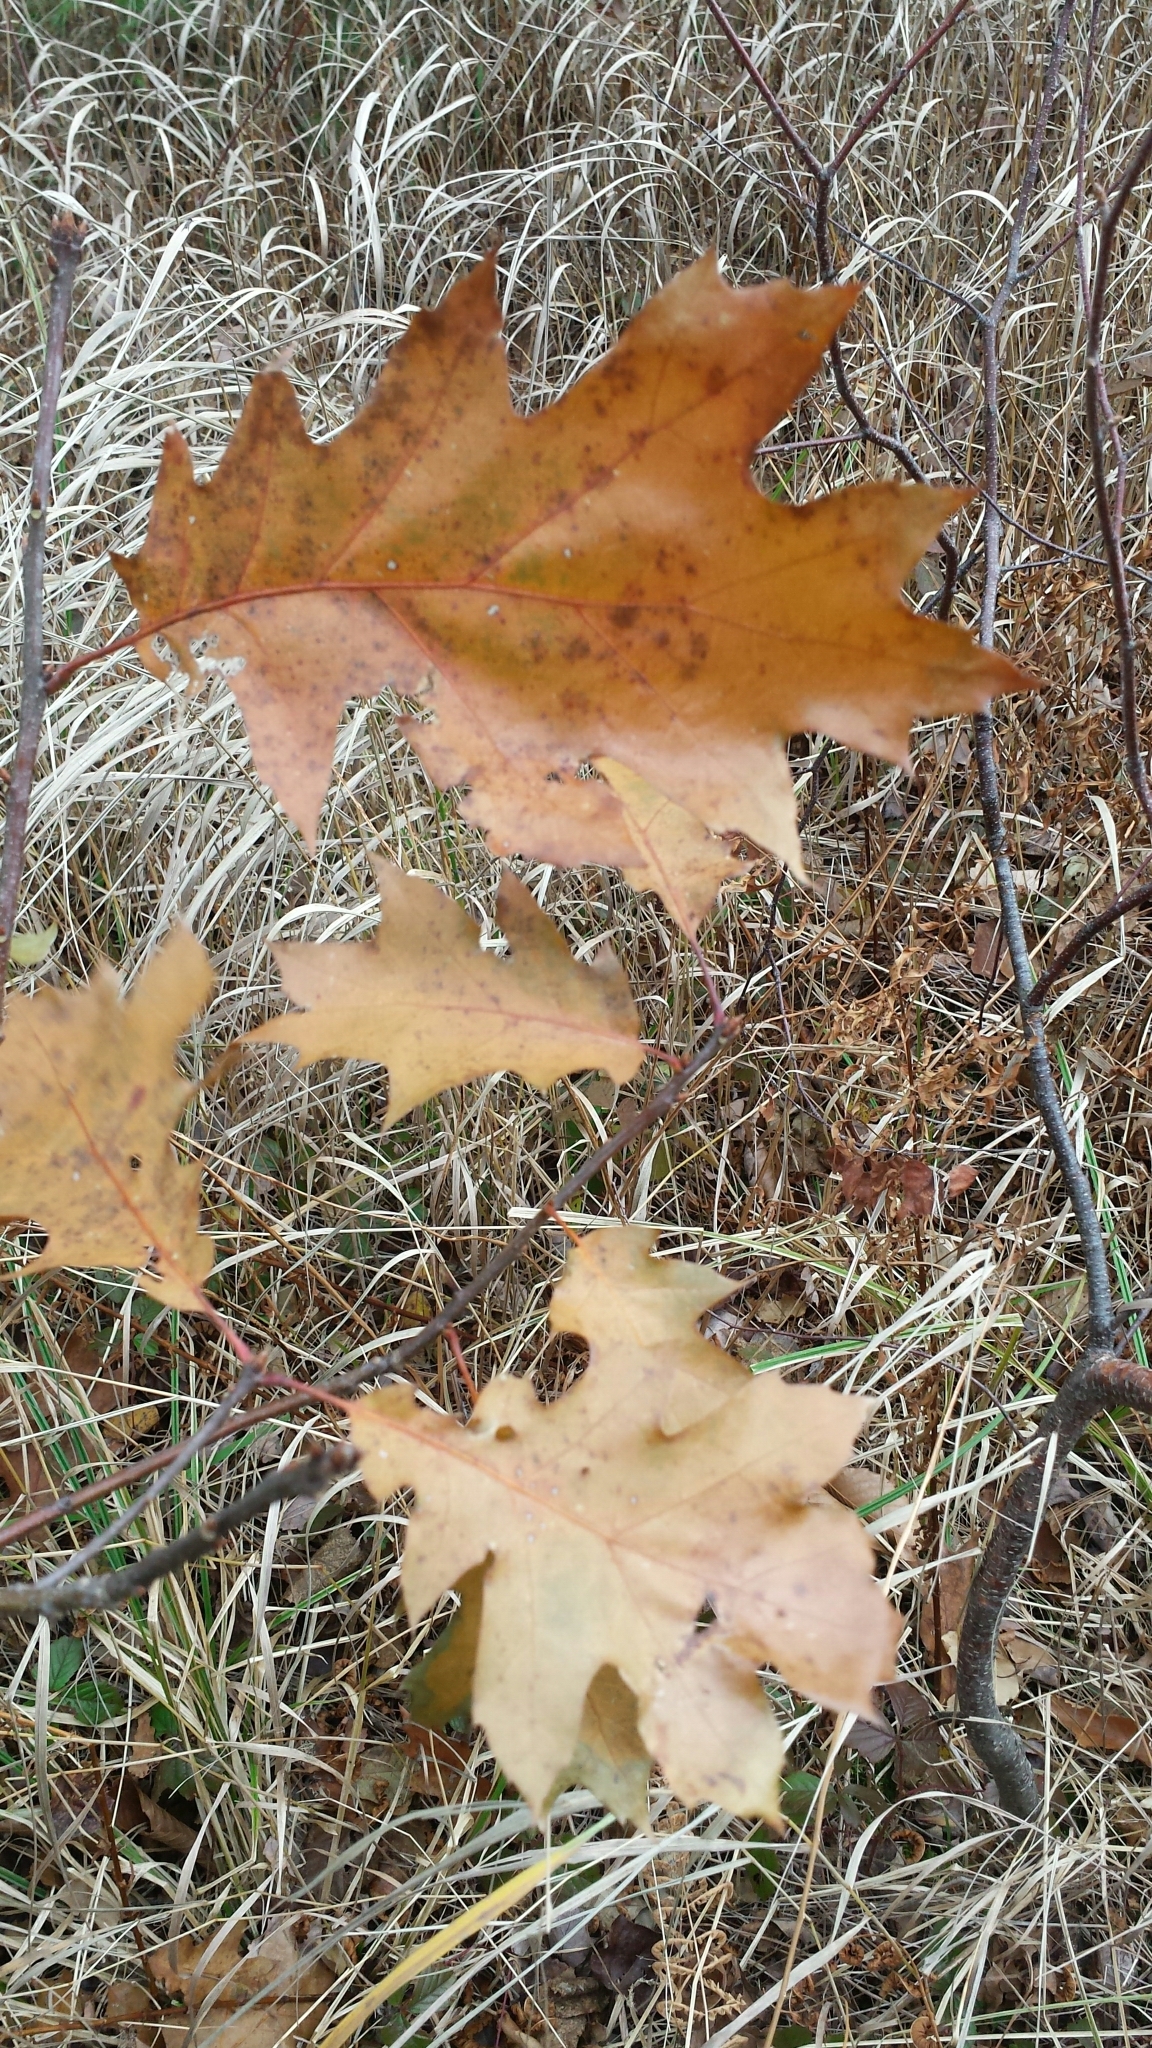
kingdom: Plantae
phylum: Tracheophyta
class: Magnoliopsida
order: Fagales
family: Fagaceae
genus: Quercus
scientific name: Quercus rubra
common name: Red oak
